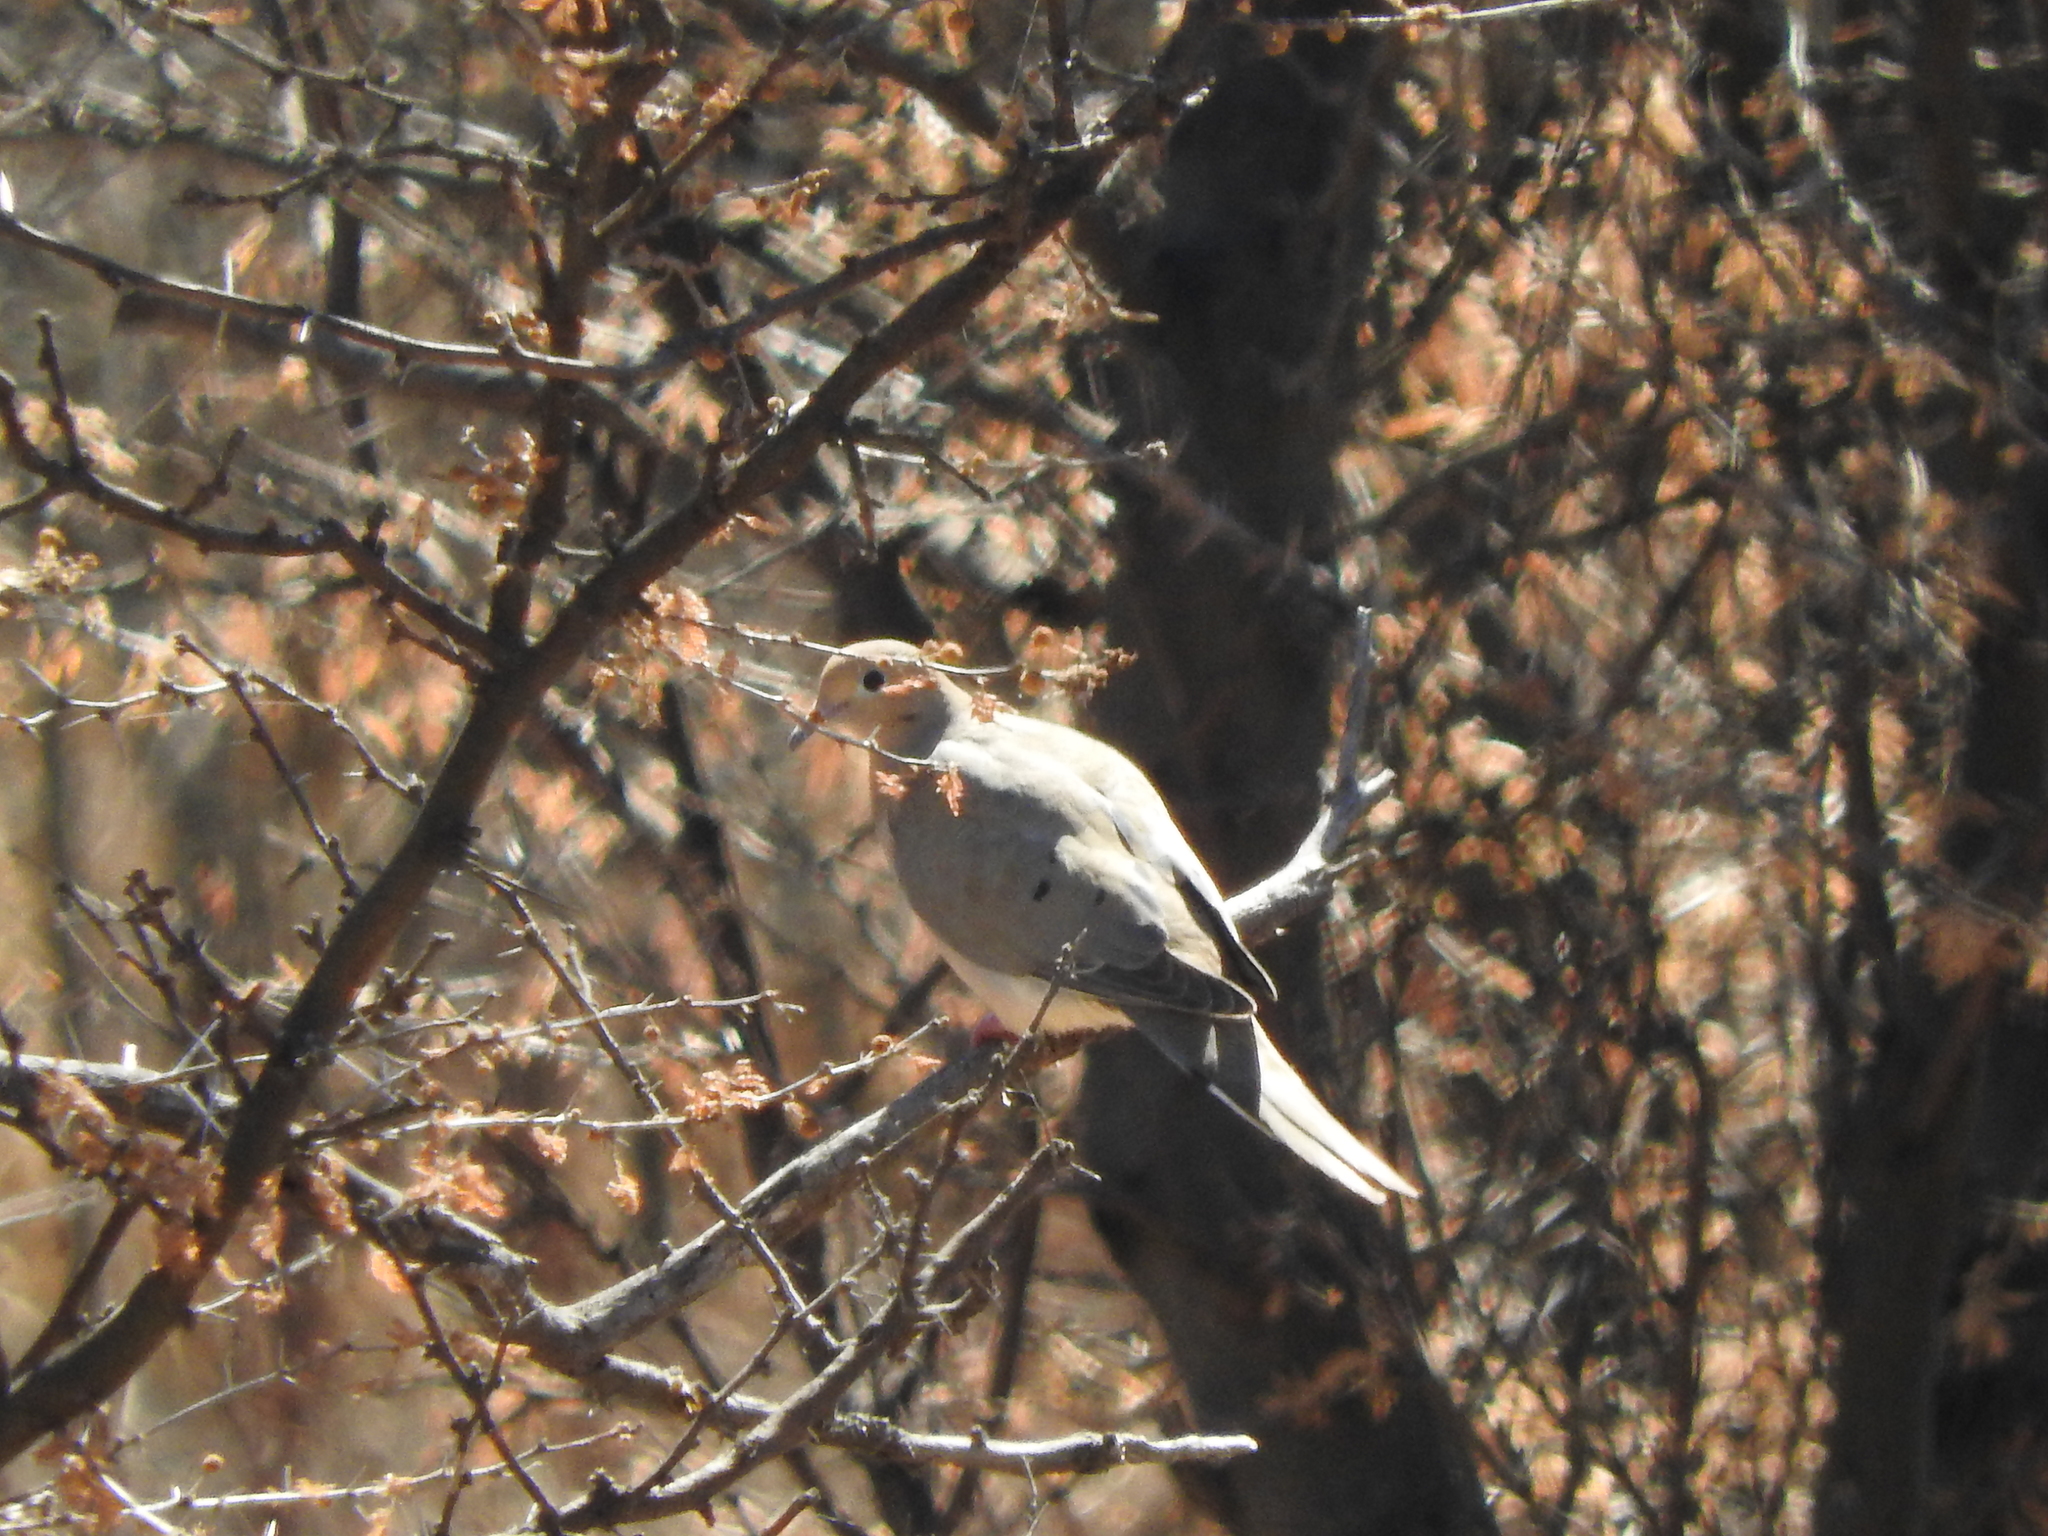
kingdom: Animalia
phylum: Chordata
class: Aves
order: Columbiformes
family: Columbidae
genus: Zenaida
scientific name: Zenaida macroura
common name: Mourning dove
